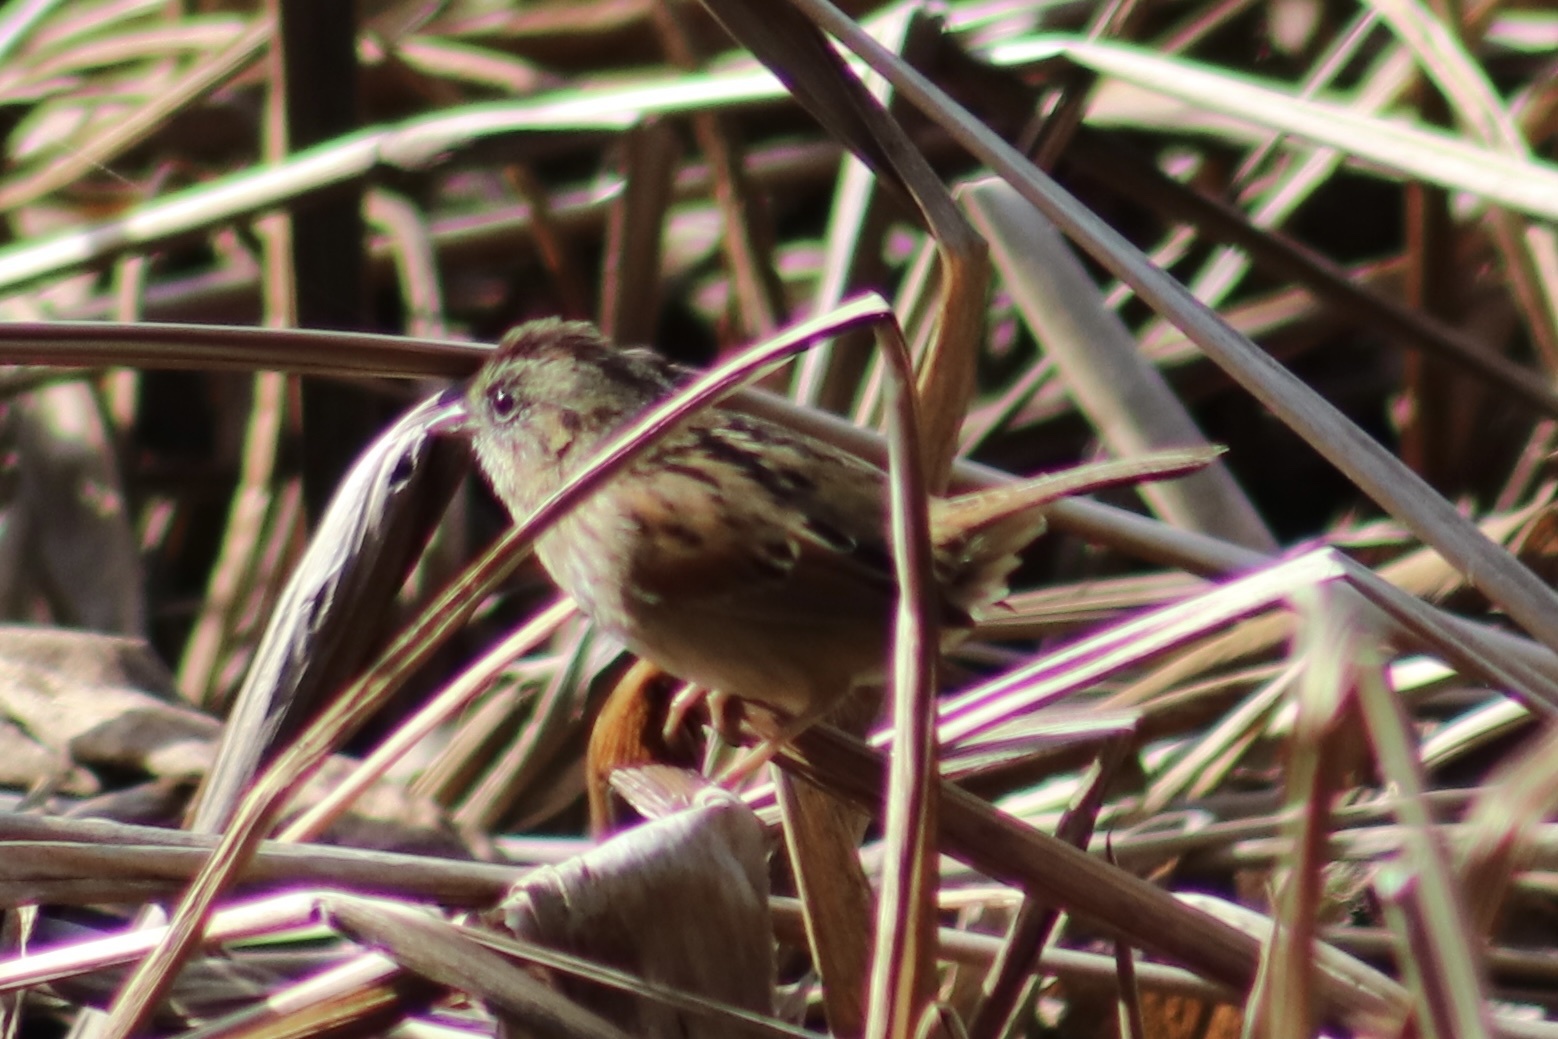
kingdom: Animalia
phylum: Chordata
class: Aves
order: Passeriformes
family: Passerellidae
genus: Melospiza
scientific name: Melospiza georgiana
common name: Swamp sparrow
